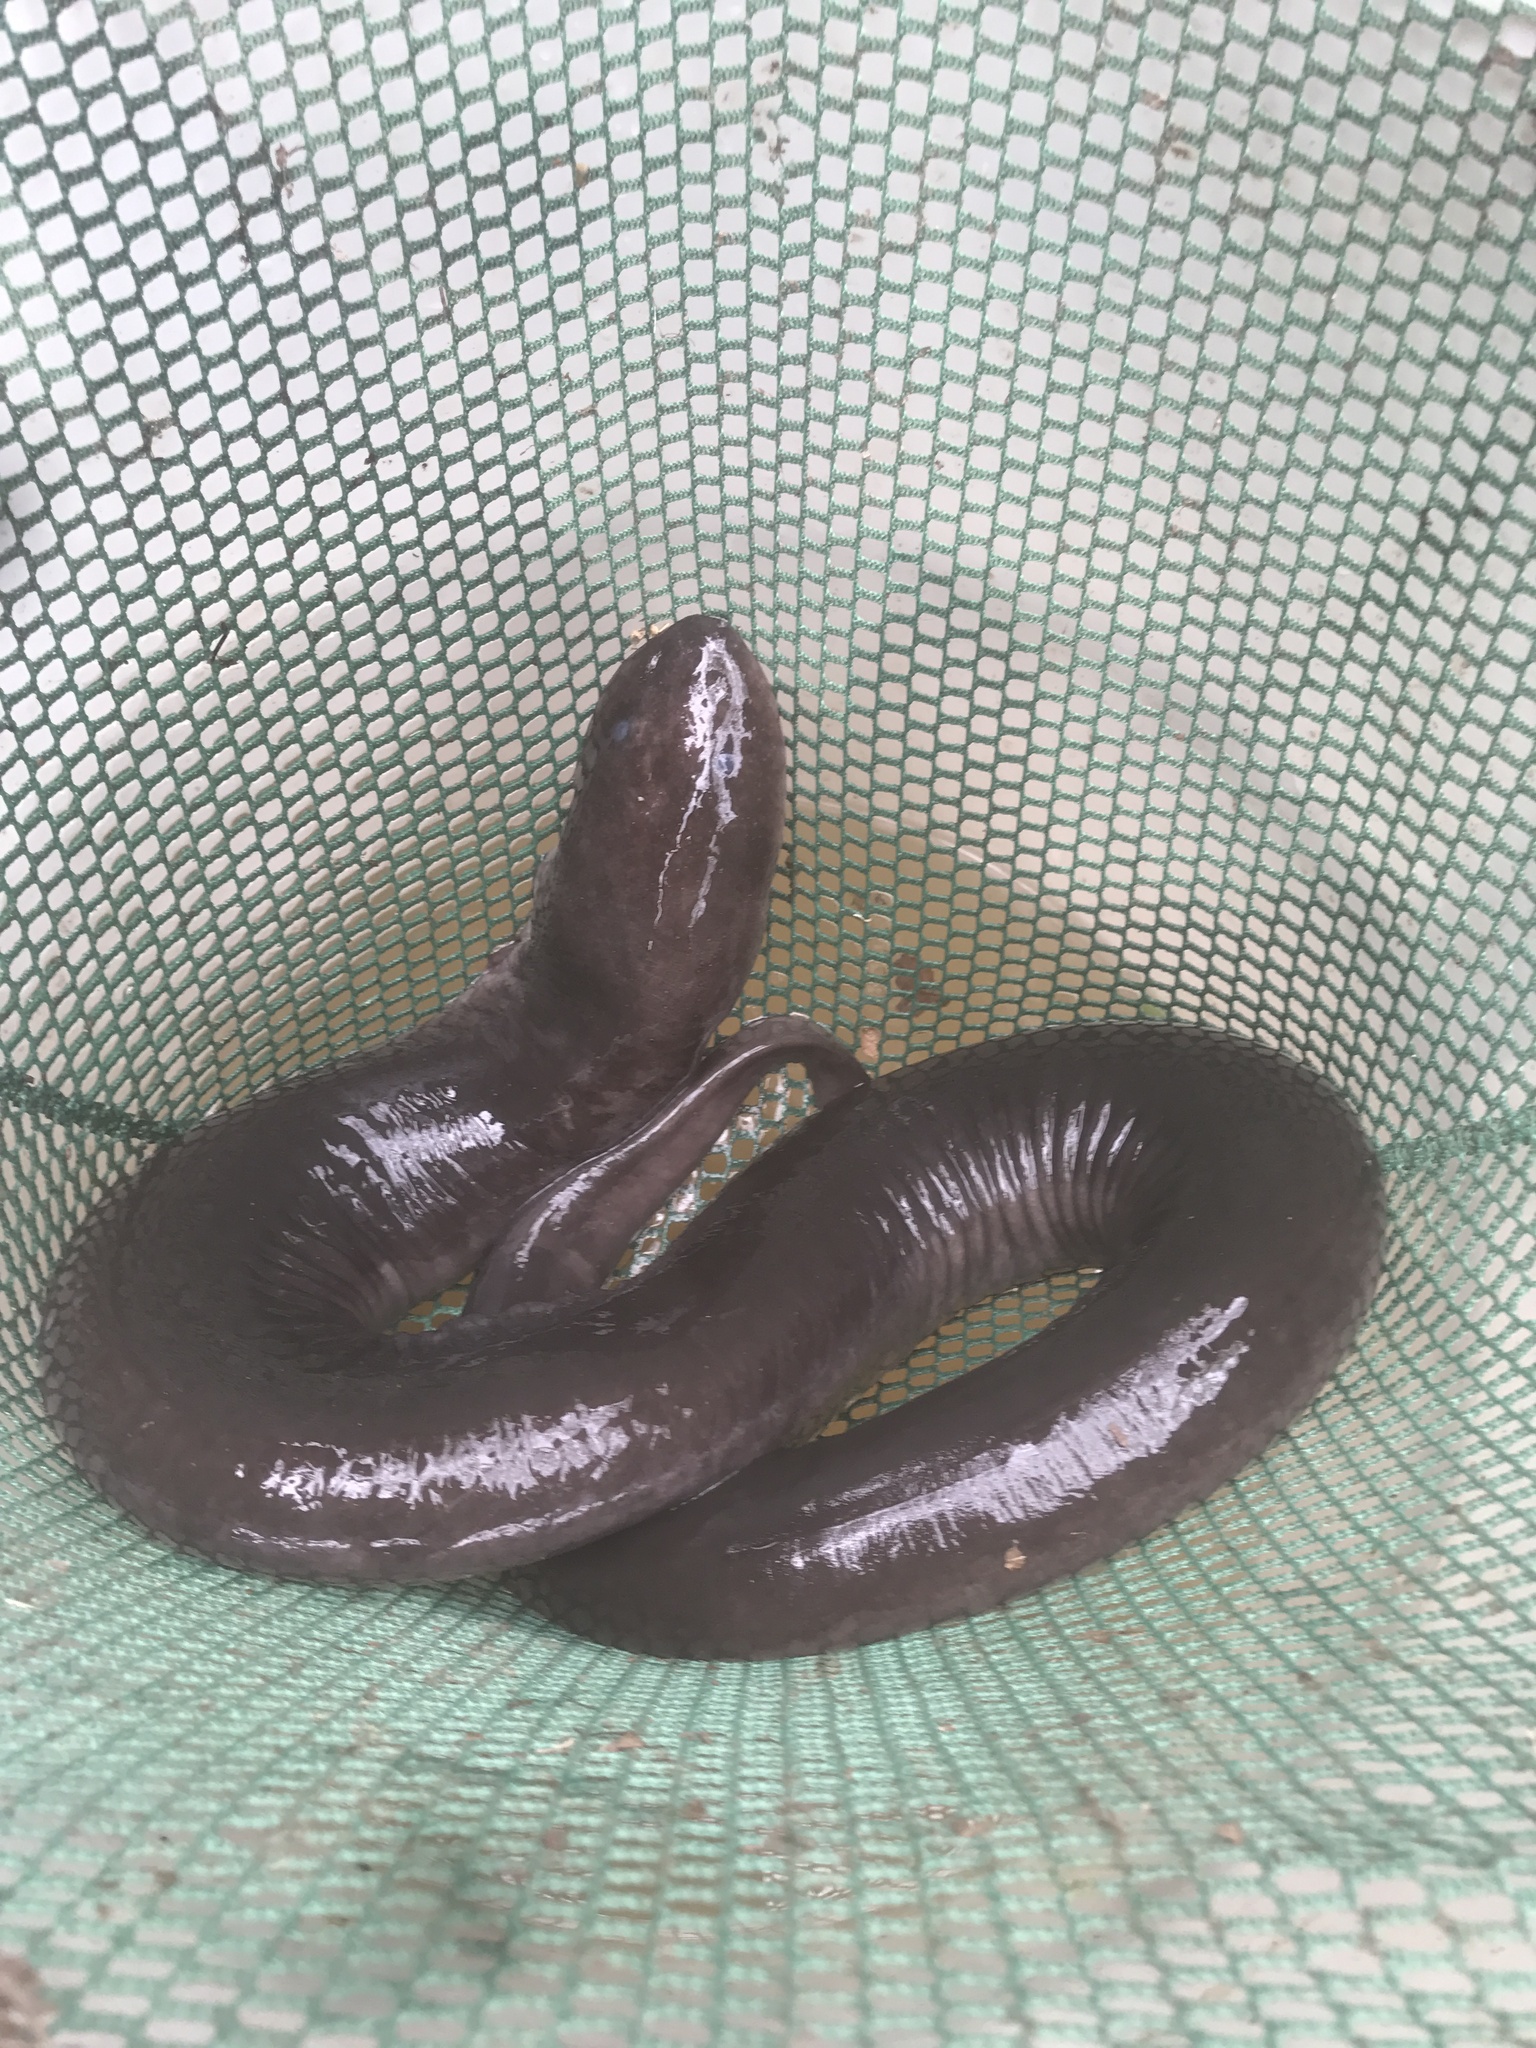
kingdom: Animalia
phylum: Chordata
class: Amphibia
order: Caudata
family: Amphiumidae
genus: Amphiuma
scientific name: Amphiuma means
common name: Two-toed amphiuma
